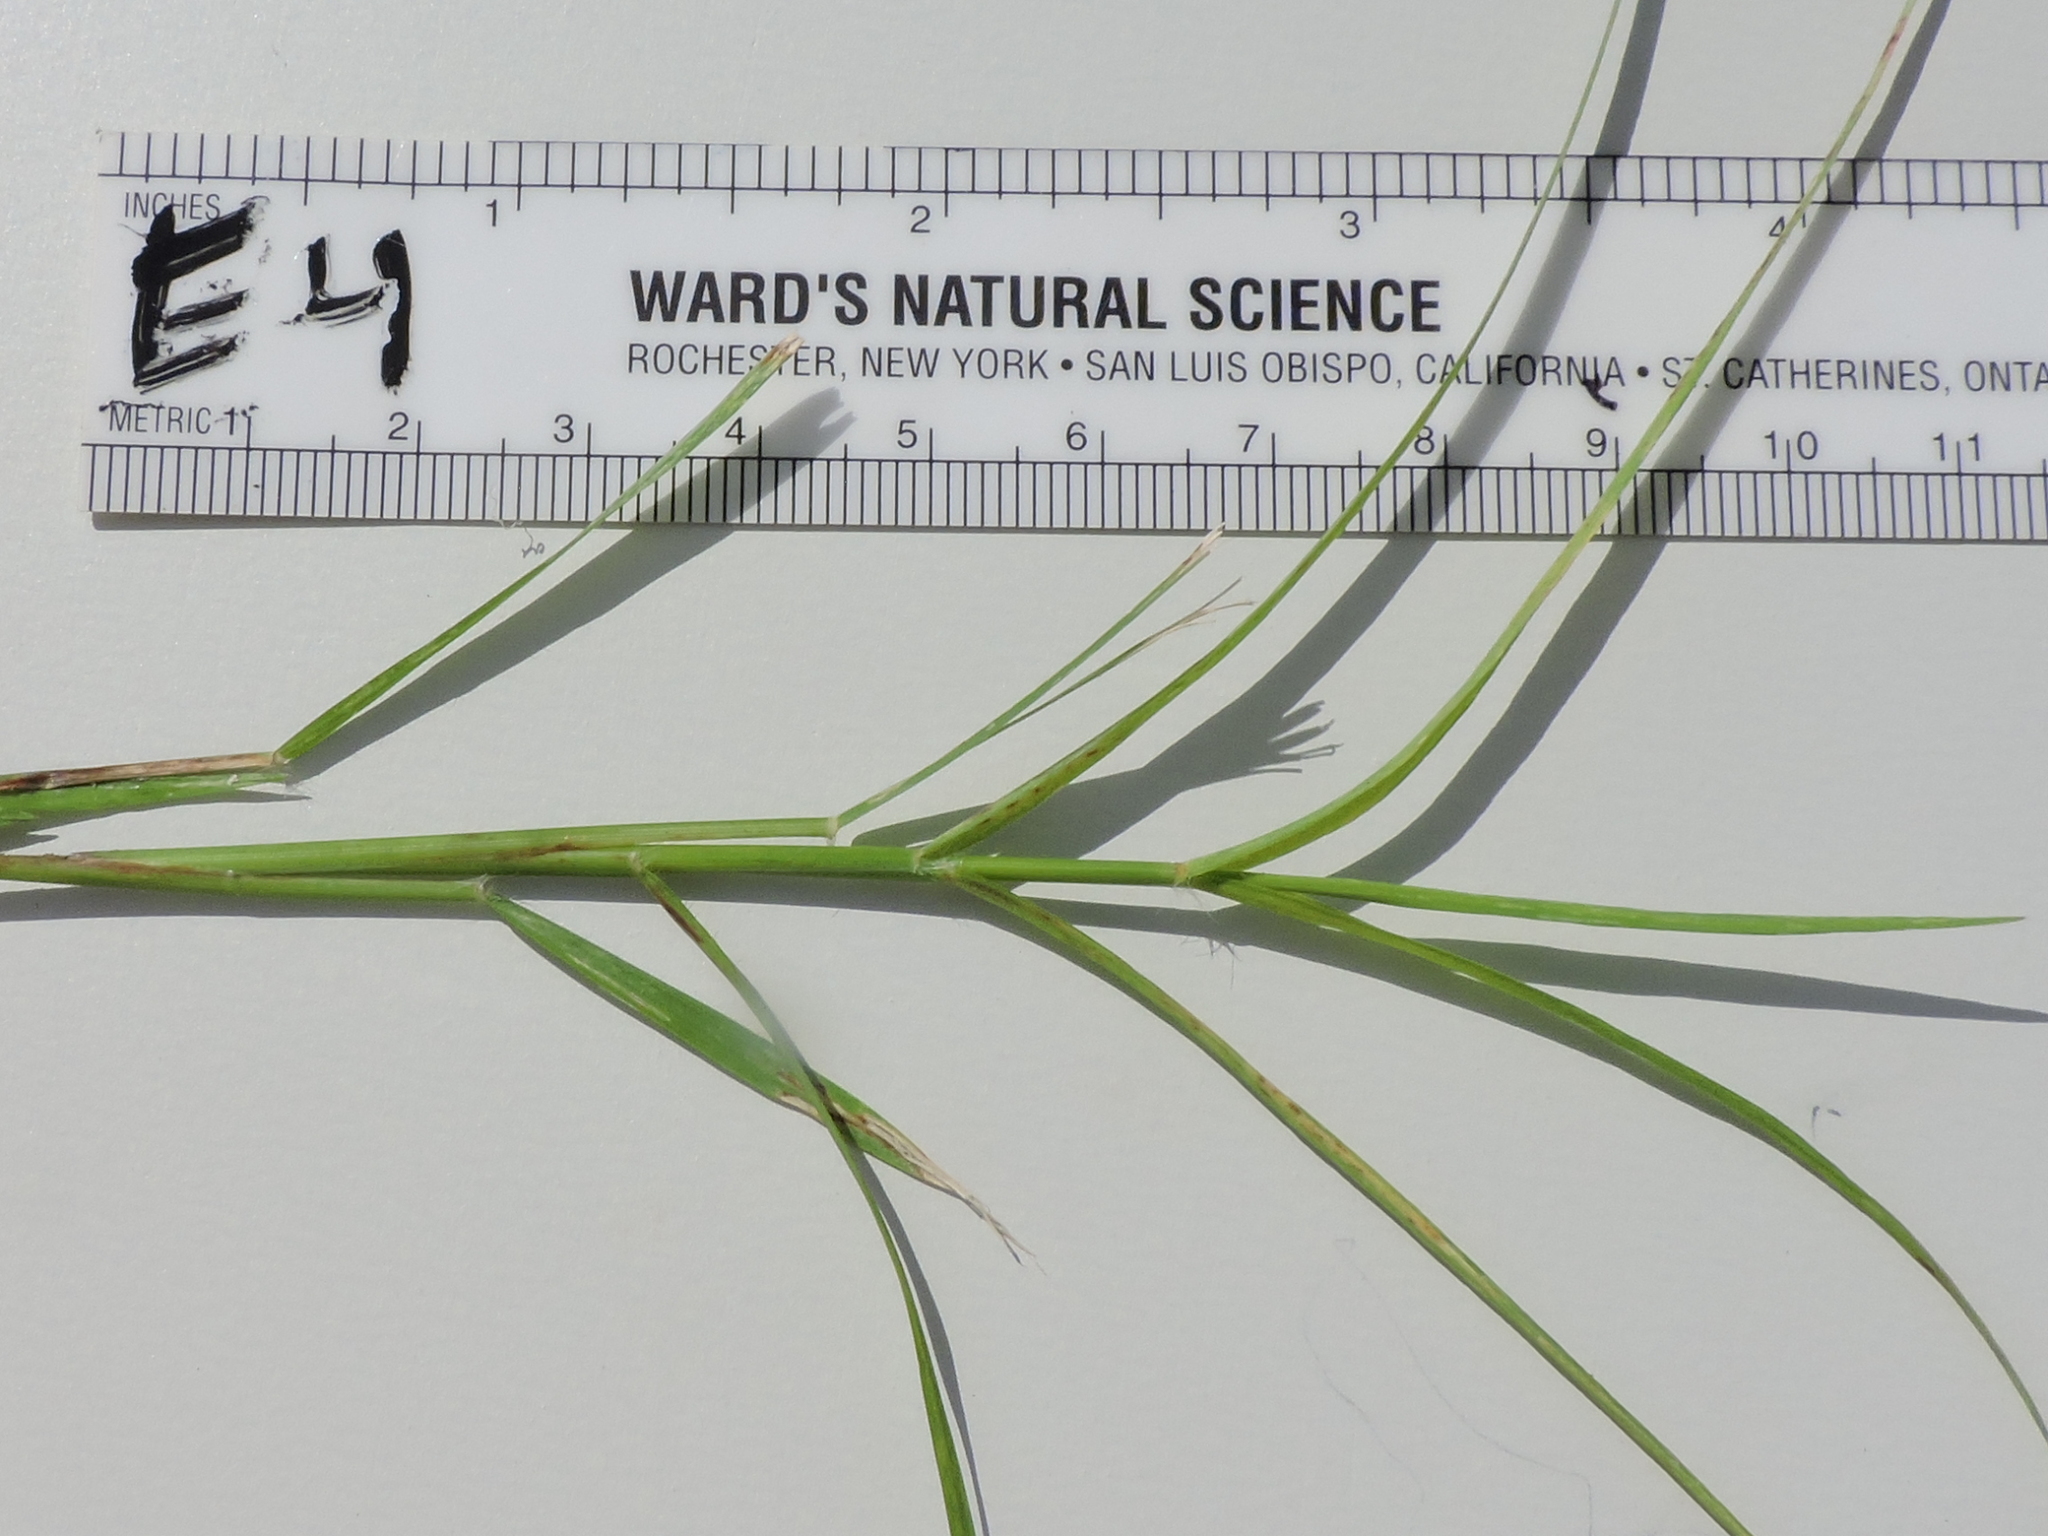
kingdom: Plantae
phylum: Tracheophyta
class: Liliopsida
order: Poales
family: Poaceae
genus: Cynodon
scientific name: Cynodon dactylon
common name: Bermuda grass
